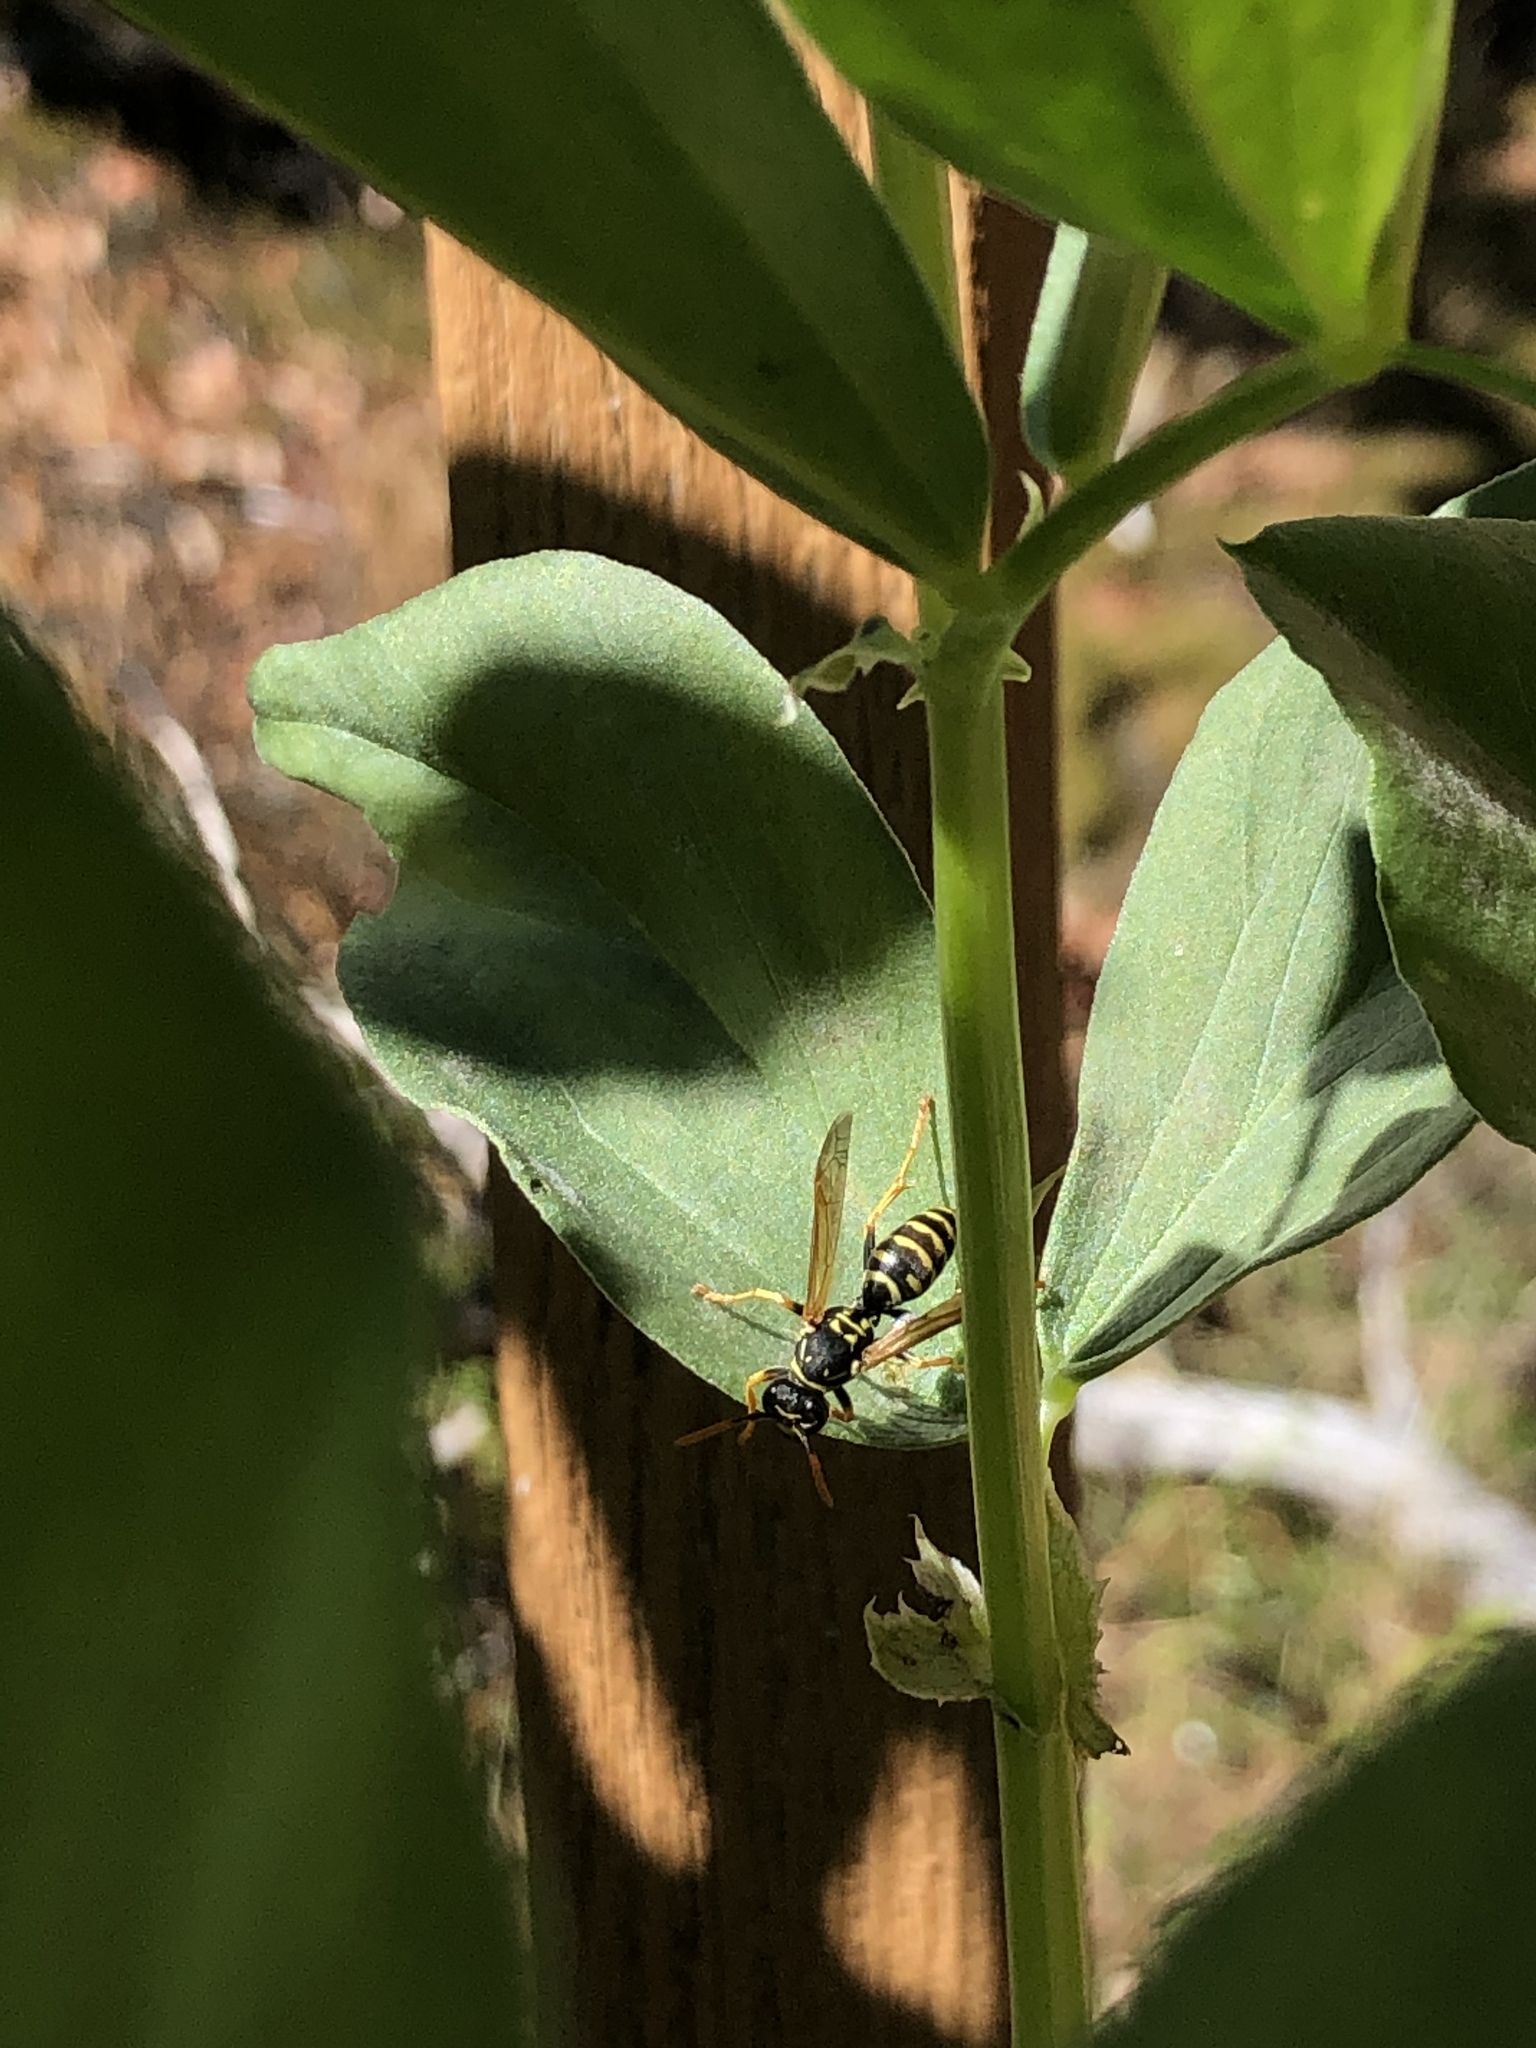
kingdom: Animalia
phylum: Arthropoda
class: Insecta
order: Hymenoptera
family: Eumenidae
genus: Polistes
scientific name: Polistes dominula
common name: Paper wasp
